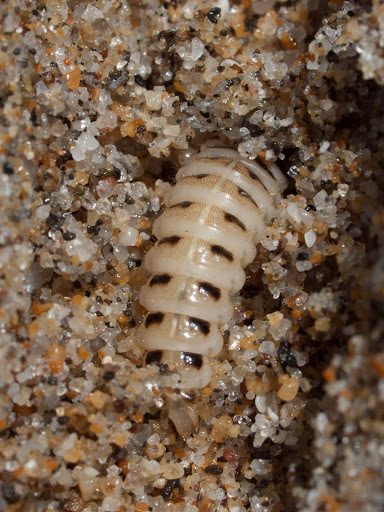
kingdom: Animalia
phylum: Arthropoda
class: Insecta
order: Coleoptera
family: Staphylinidae
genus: Thinopinus
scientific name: Thinopinus pictus
